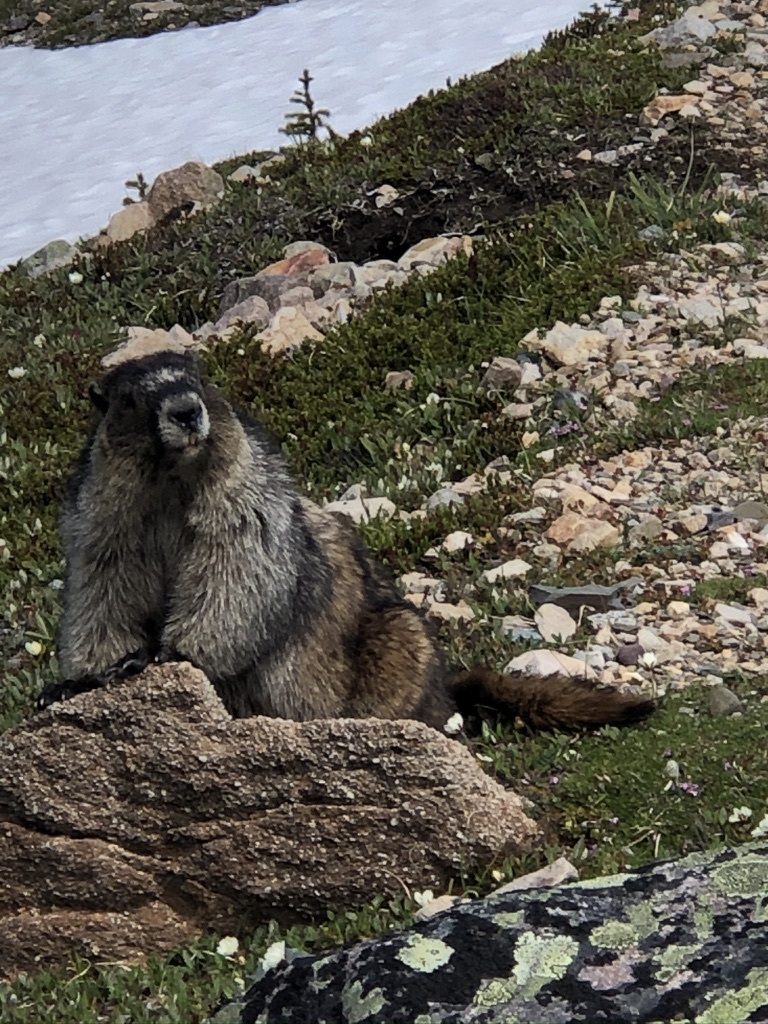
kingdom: Animalia
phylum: Chordata
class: Mammalia
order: Rodentia
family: Sciuridae
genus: Marmota
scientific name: Marmota caligata
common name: Hoary marmot
